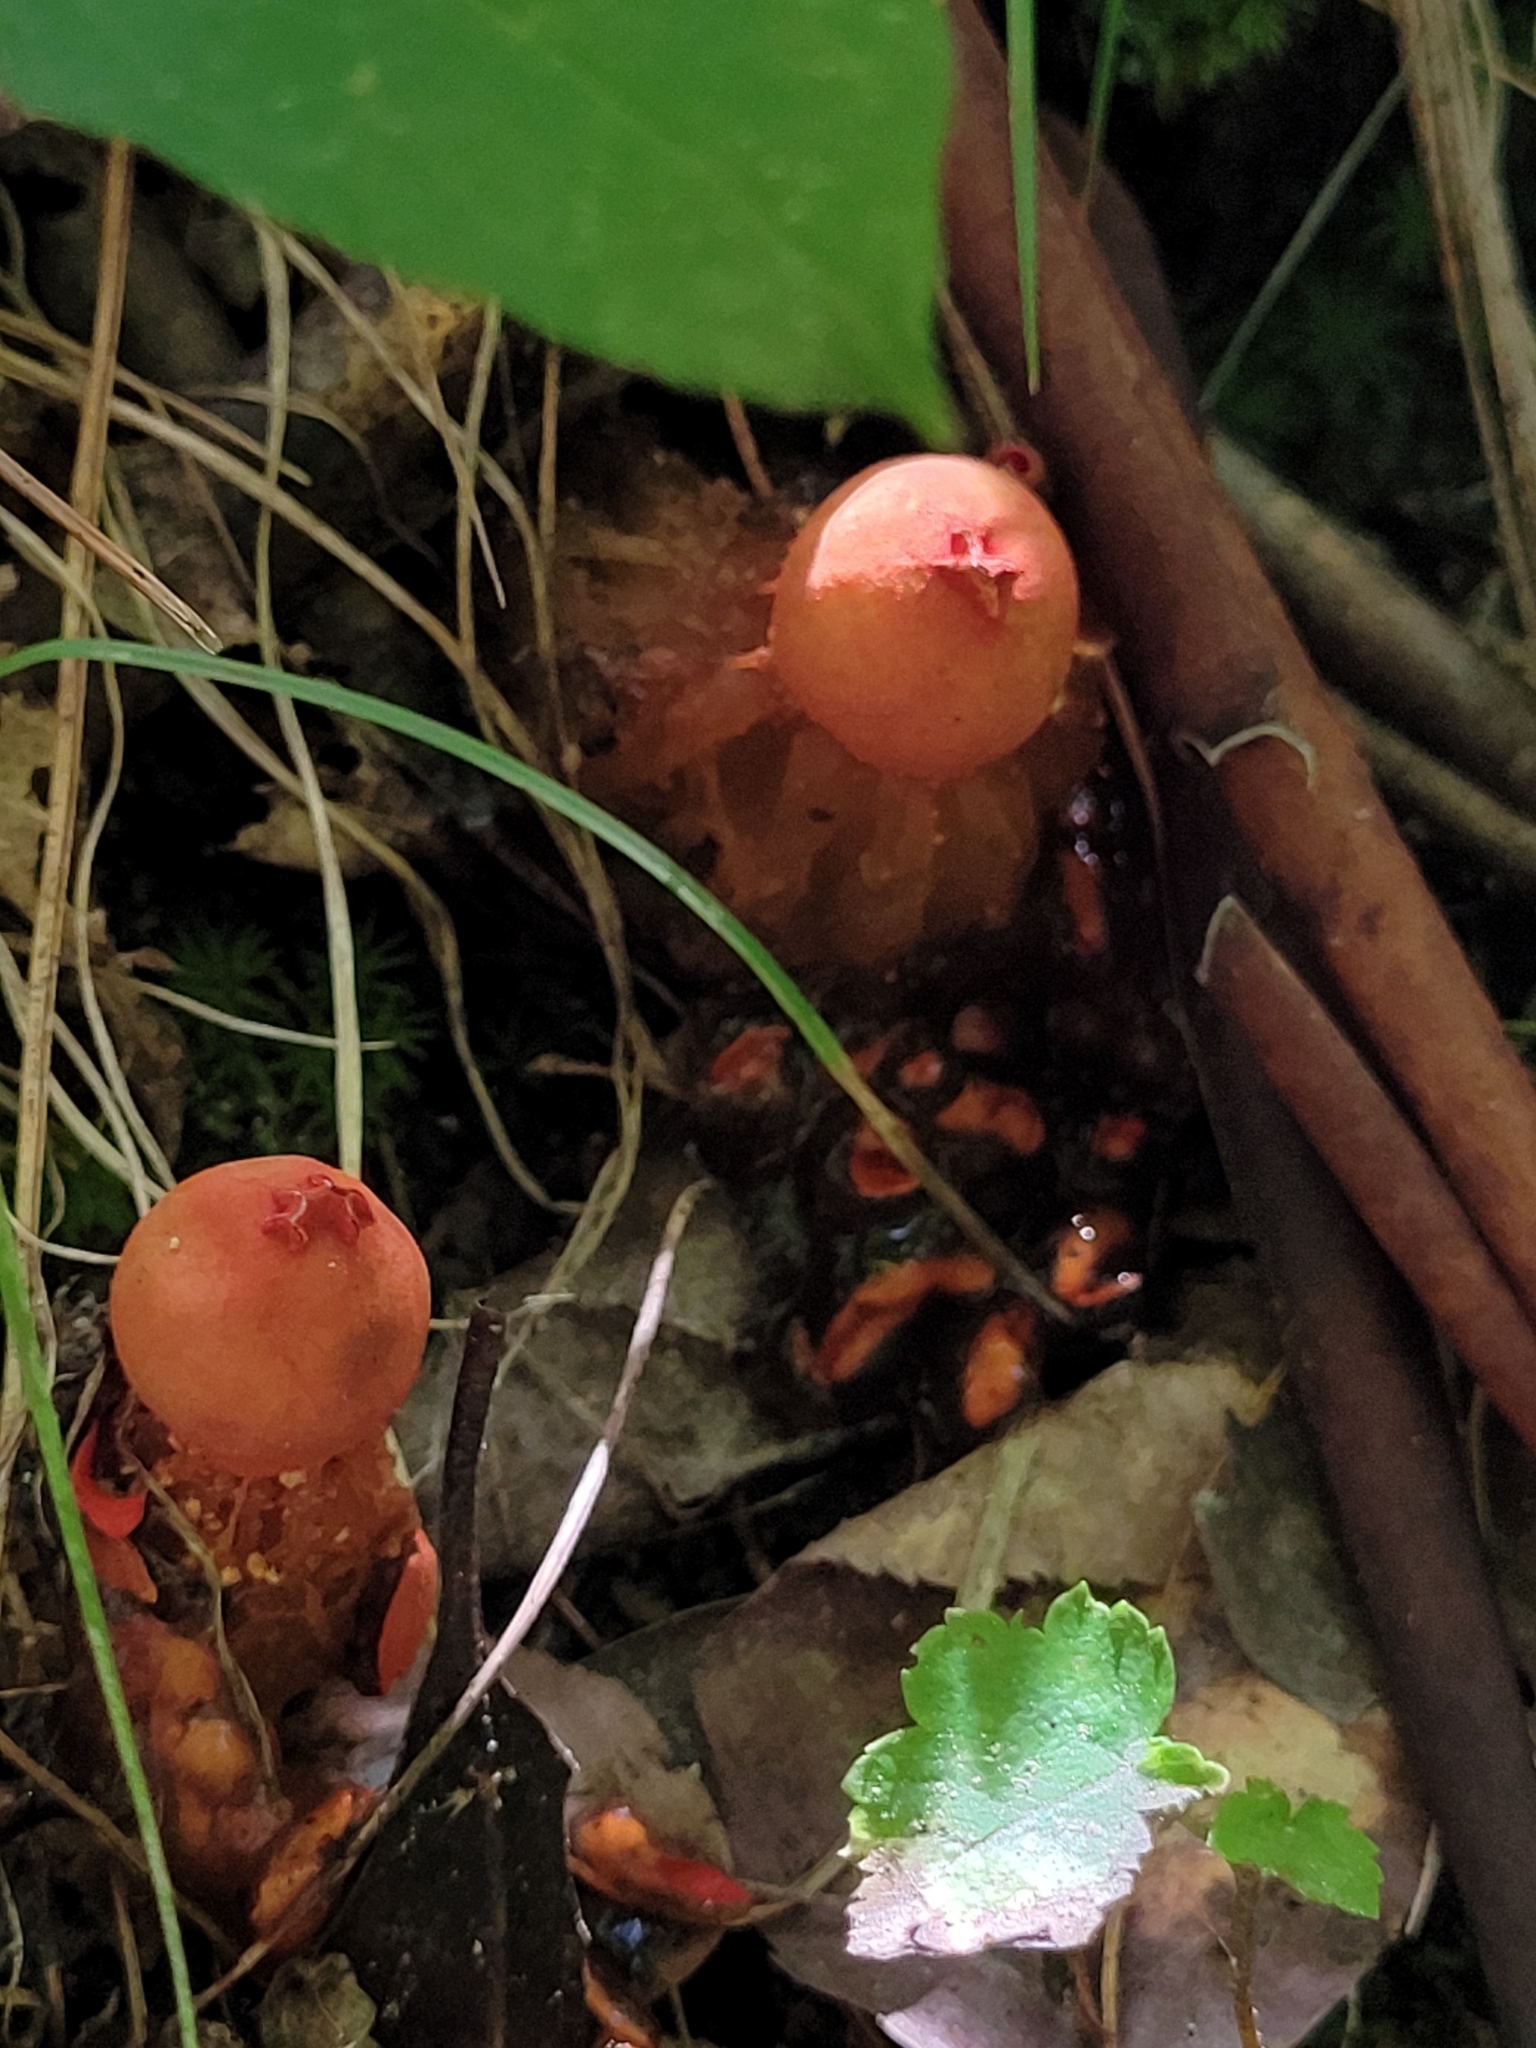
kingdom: Fungi
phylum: Basidiomycota
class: Agaricomycetes
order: Boletales
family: Calostomataceae
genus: Calostoma
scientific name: Calostoma cinnabarinum
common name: Stalked puffball-in-aspic
